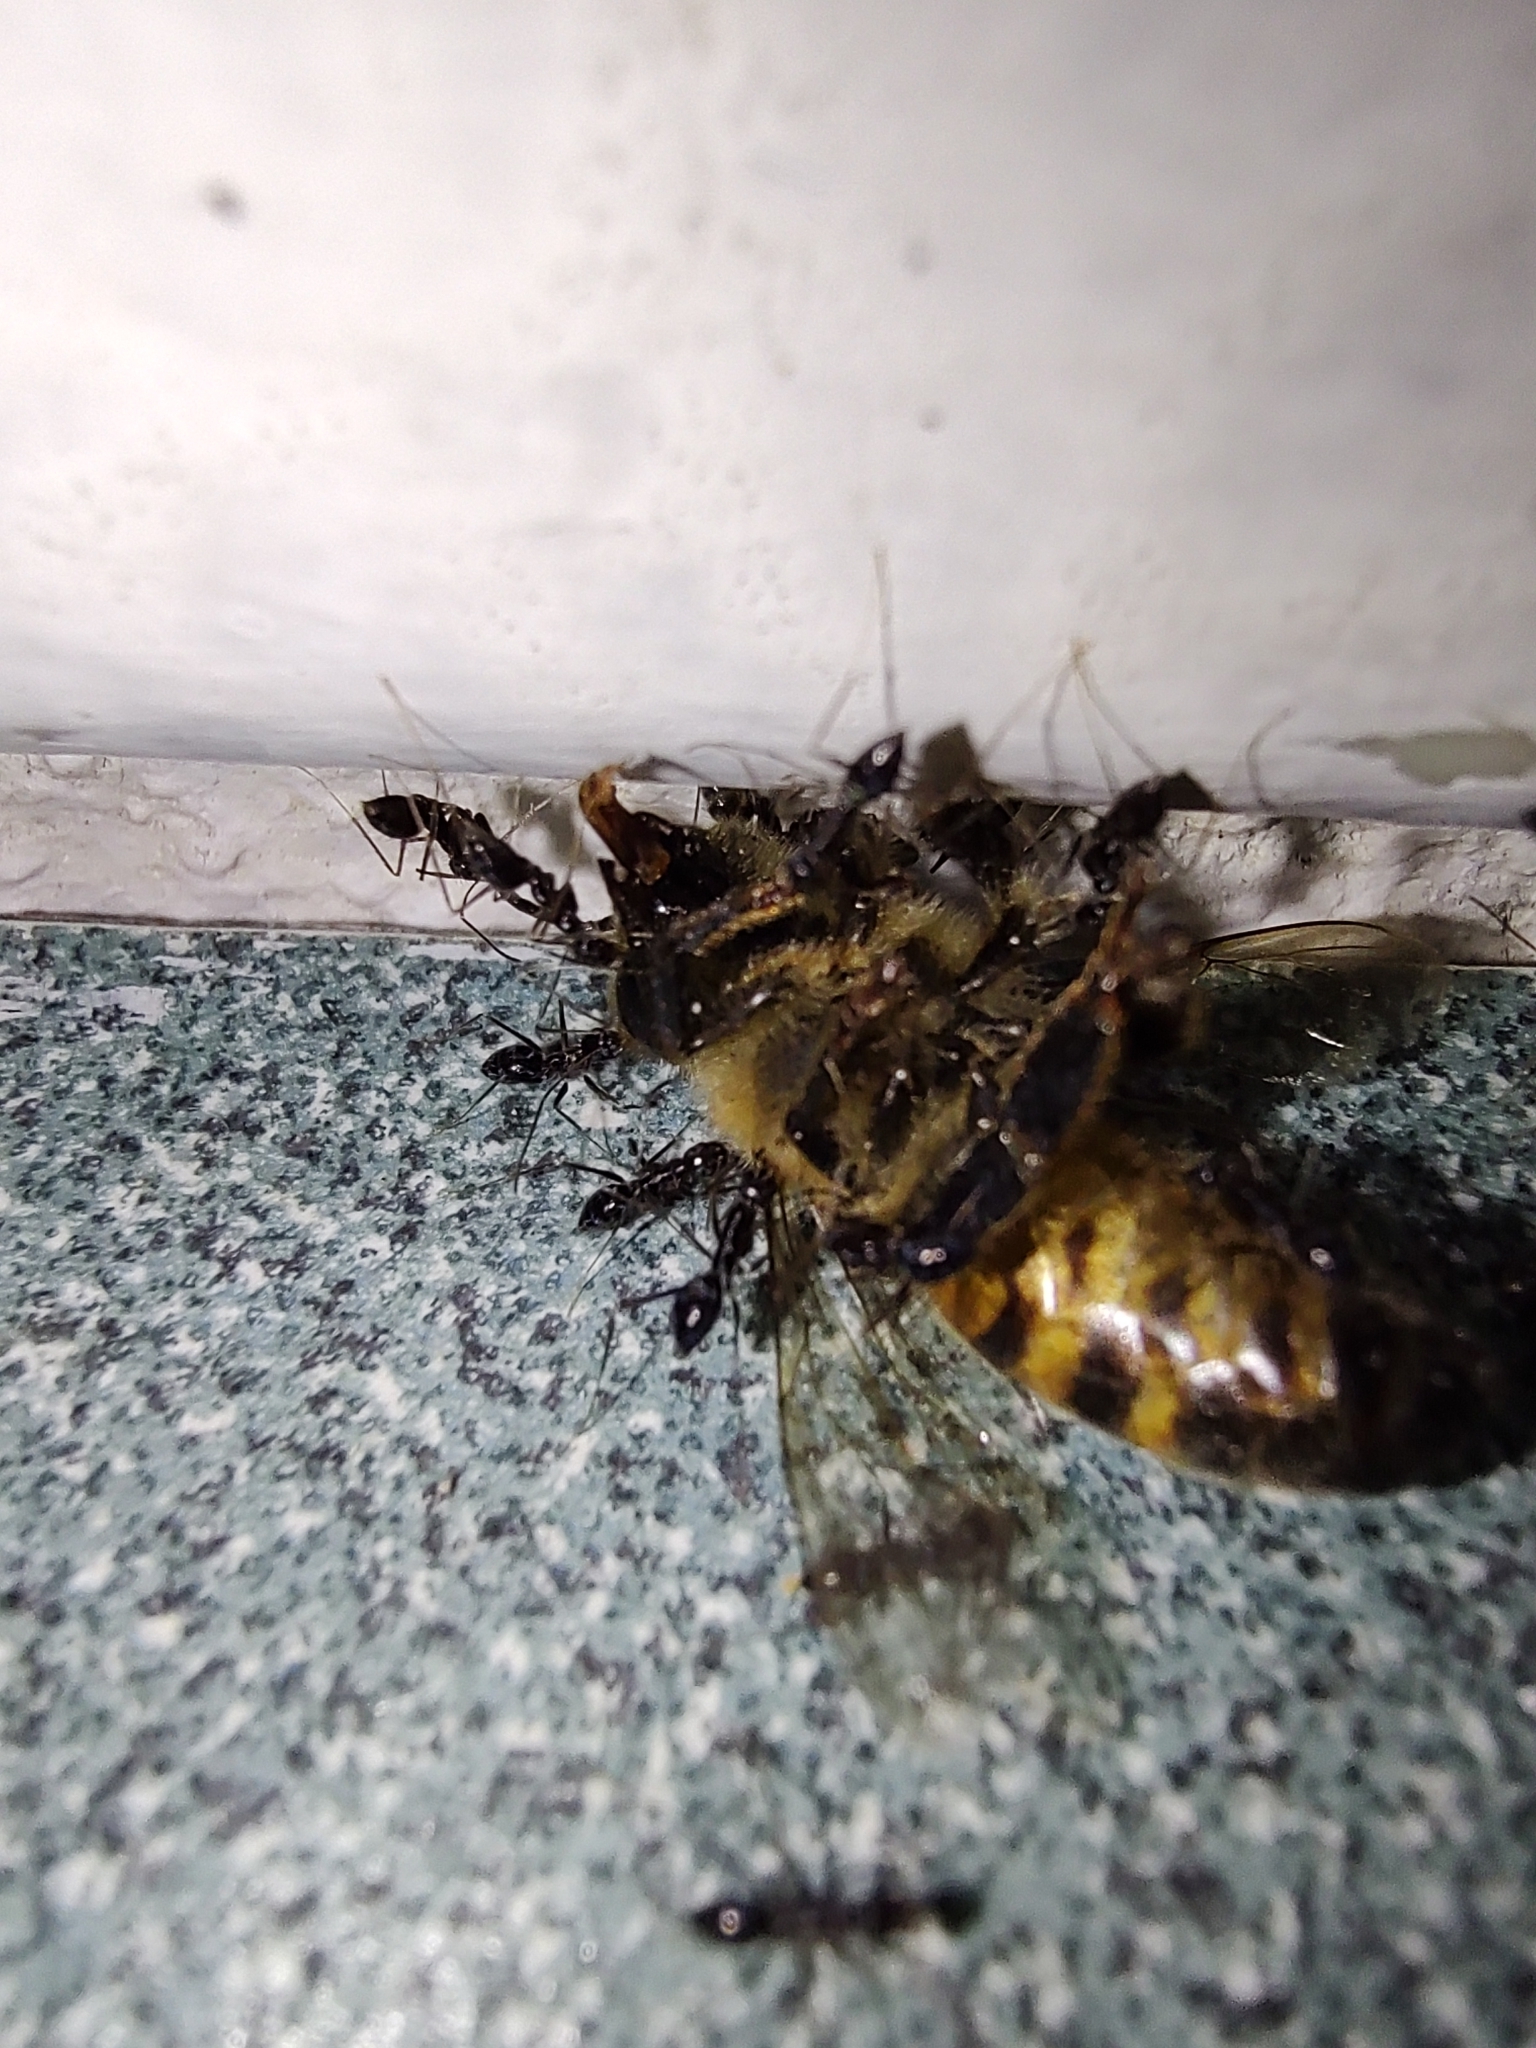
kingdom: Animalia
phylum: Arthropoda
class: Insecta
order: Hymenoptera
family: Formicidae
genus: Paratrechina
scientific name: Paratrechina longicornis
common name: Longhorned crazy ant
